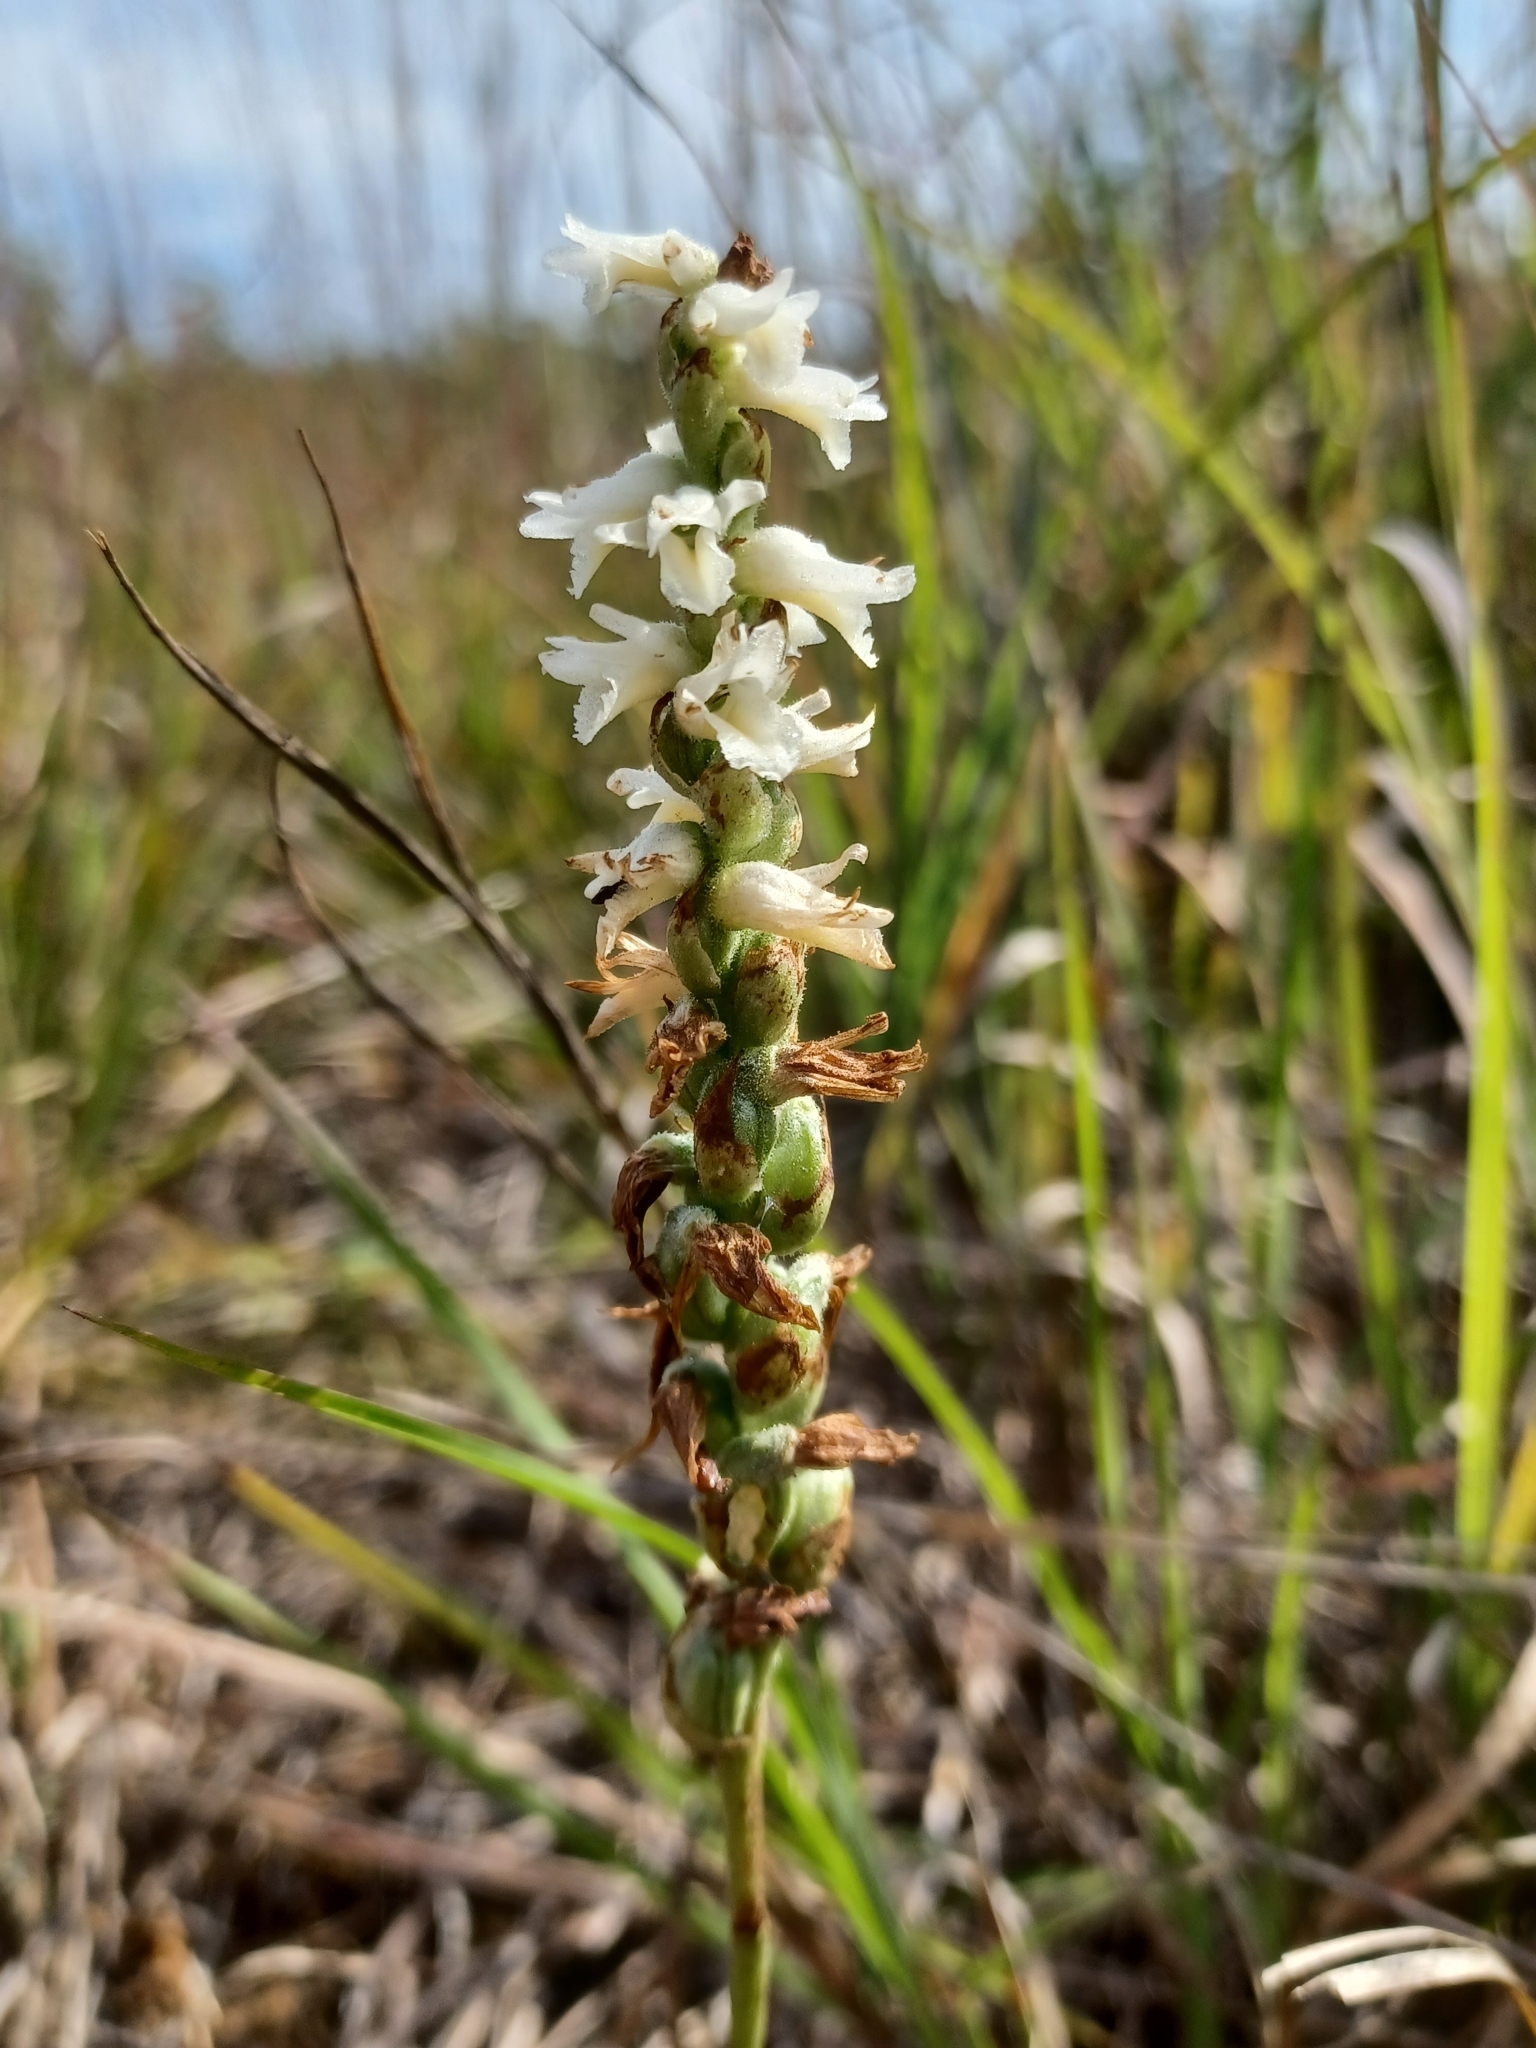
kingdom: Plantae
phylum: Tracheophyta
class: Liliopsida
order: Asparagales
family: Orchidaceae
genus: Spiranthes
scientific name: Spiranthes magnicamporum
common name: Great plains ladies'-tresses
